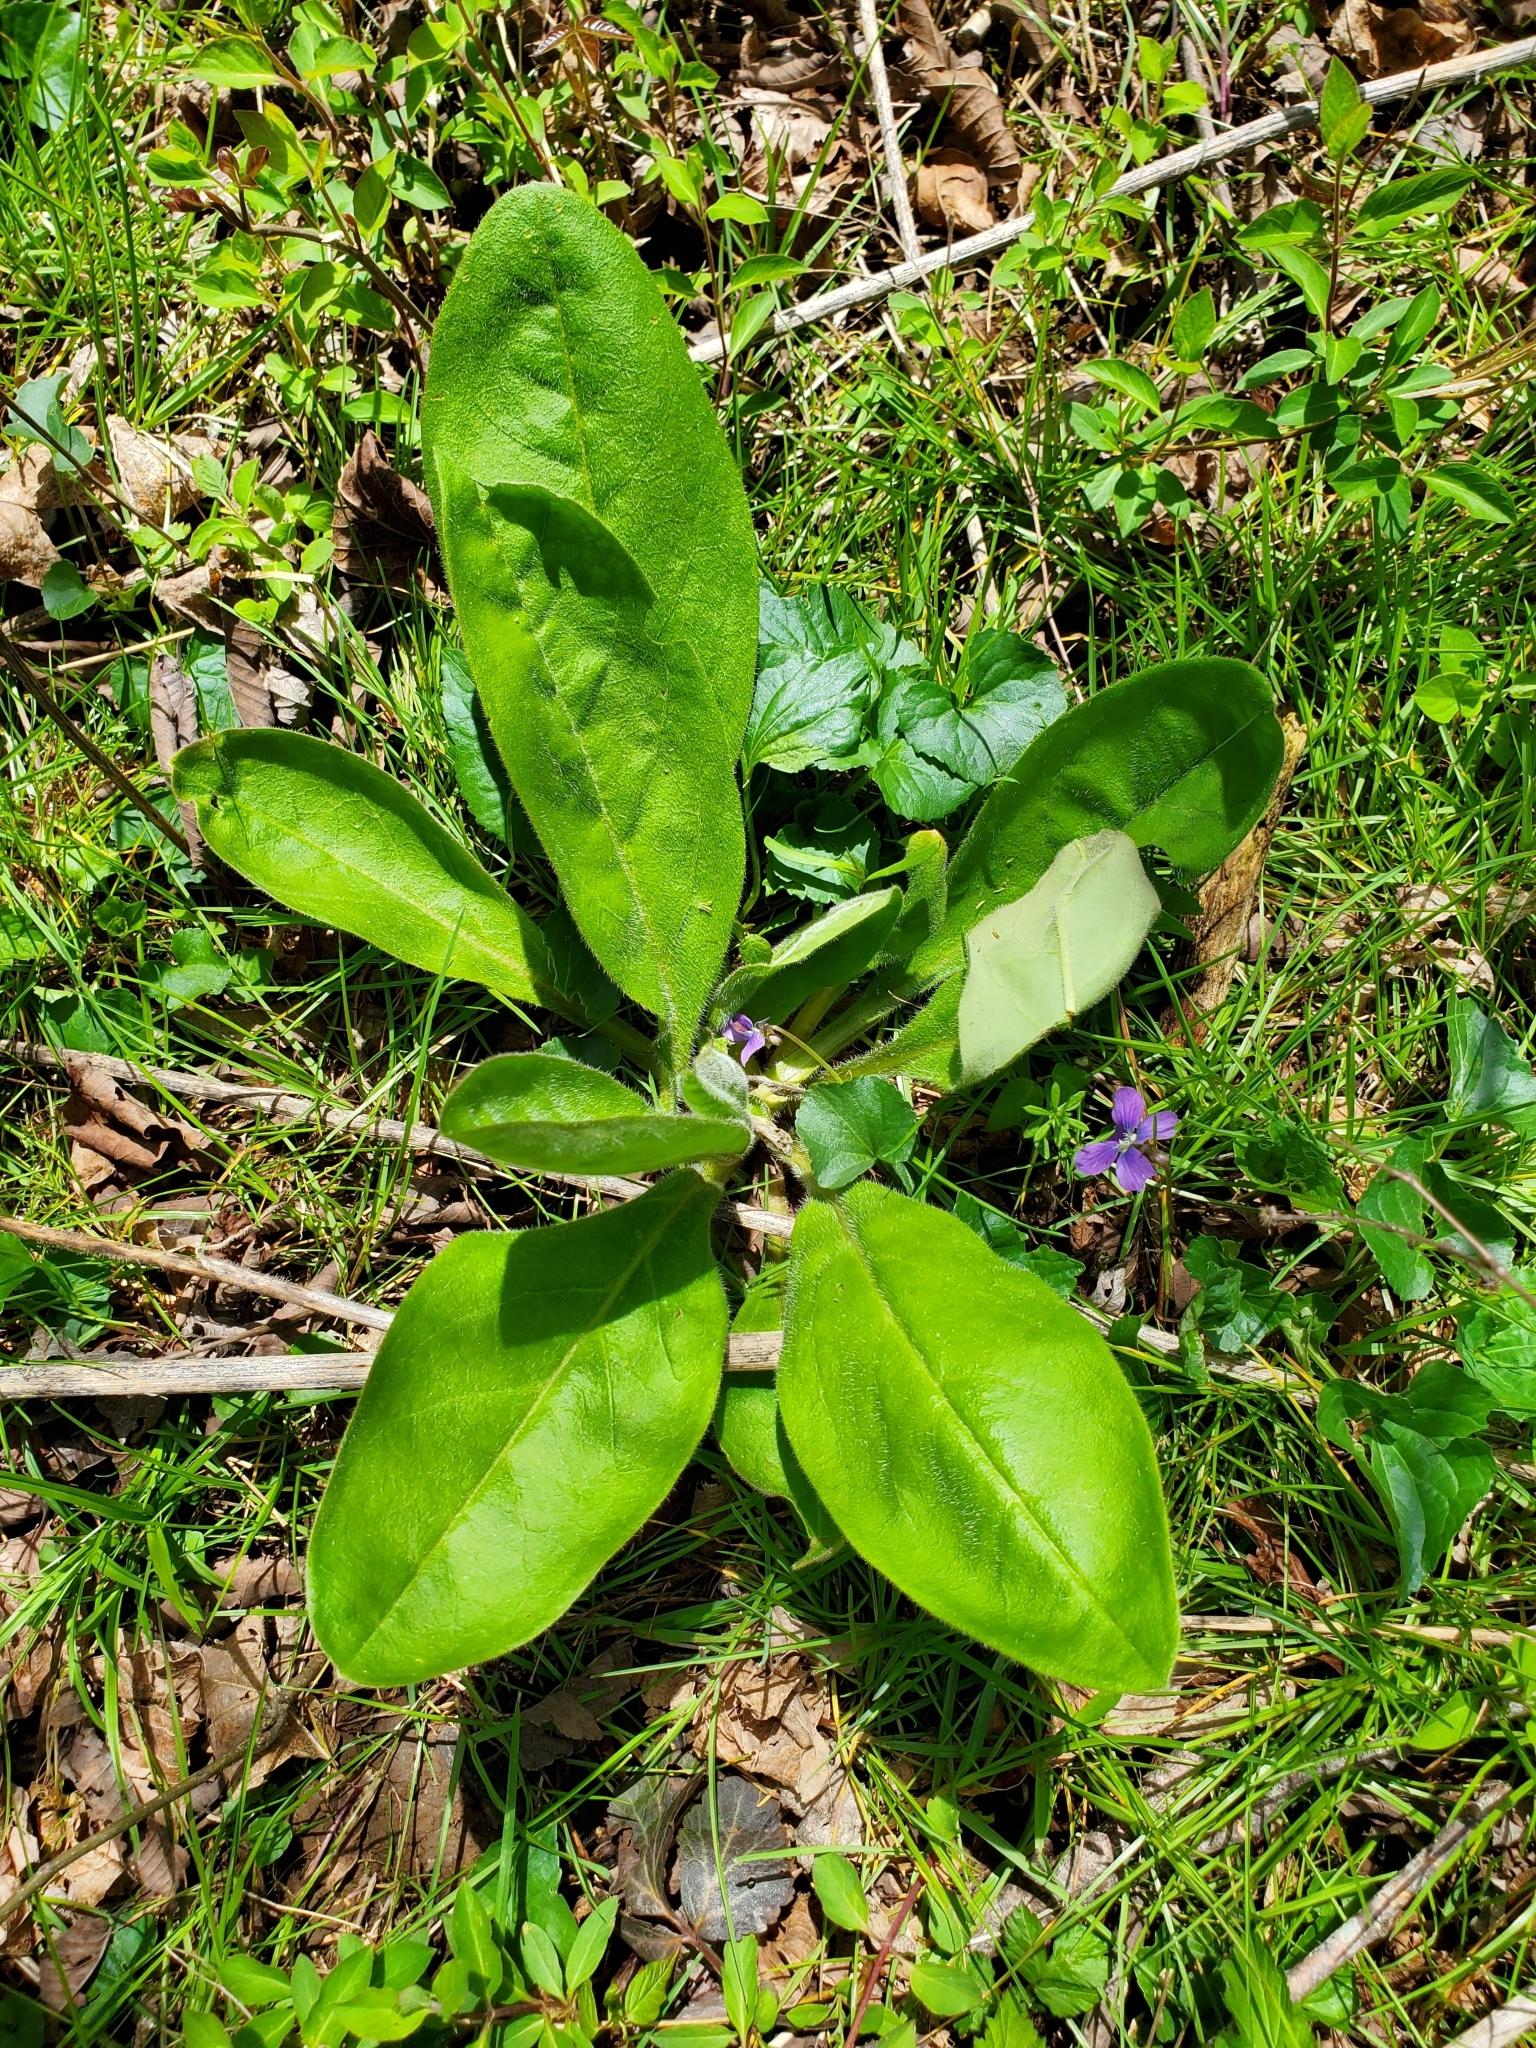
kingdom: Plantae
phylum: Tracheophyta
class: Magnoliopsida
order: Boraginales
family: Boraginaceae
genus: Andersonglossum
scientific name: Andersonglossum virginianum
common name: Wild comfrey
